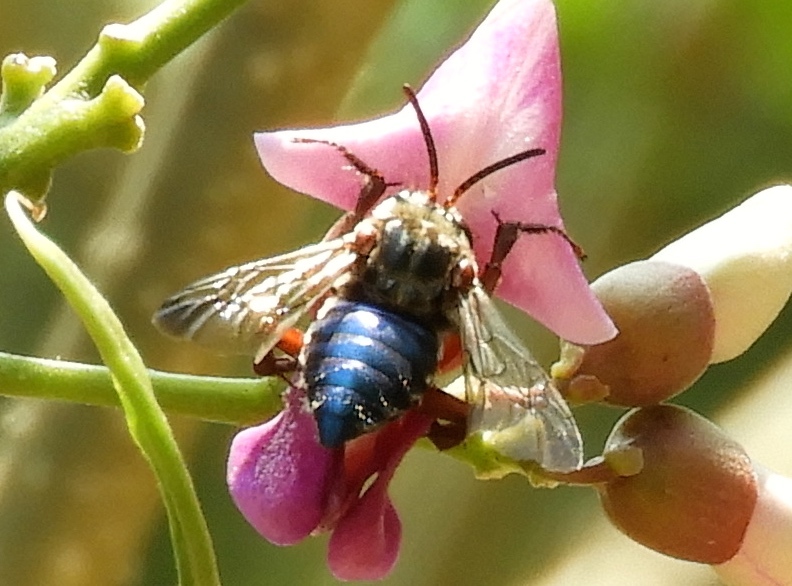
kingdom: Animalia
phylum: Arthropoda
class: Insecta
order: Hymenoptera
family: Apidae
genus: Mesoplia
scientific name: Mesoplia
